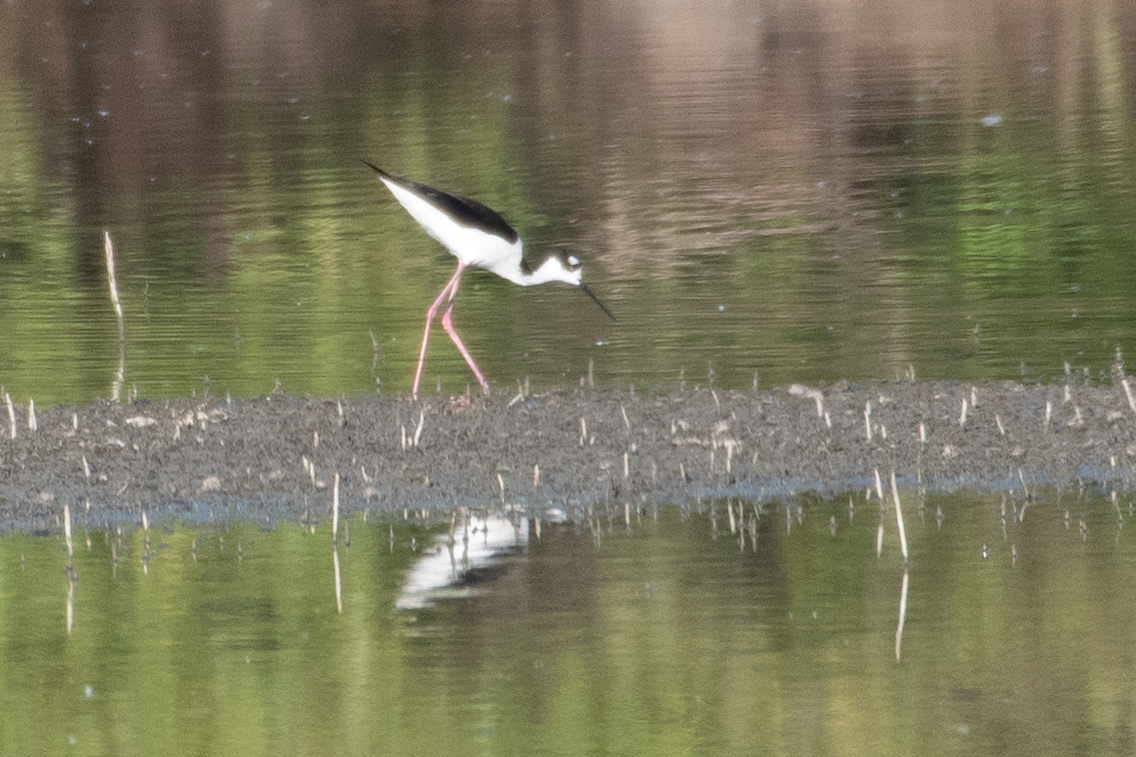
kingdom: Animalia
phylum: Chordata
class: Aves
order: Charadriiformes
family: Recurvirostridae
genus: Himantopus
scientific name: Himantopus mexicanus
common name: Black-necked stilt
